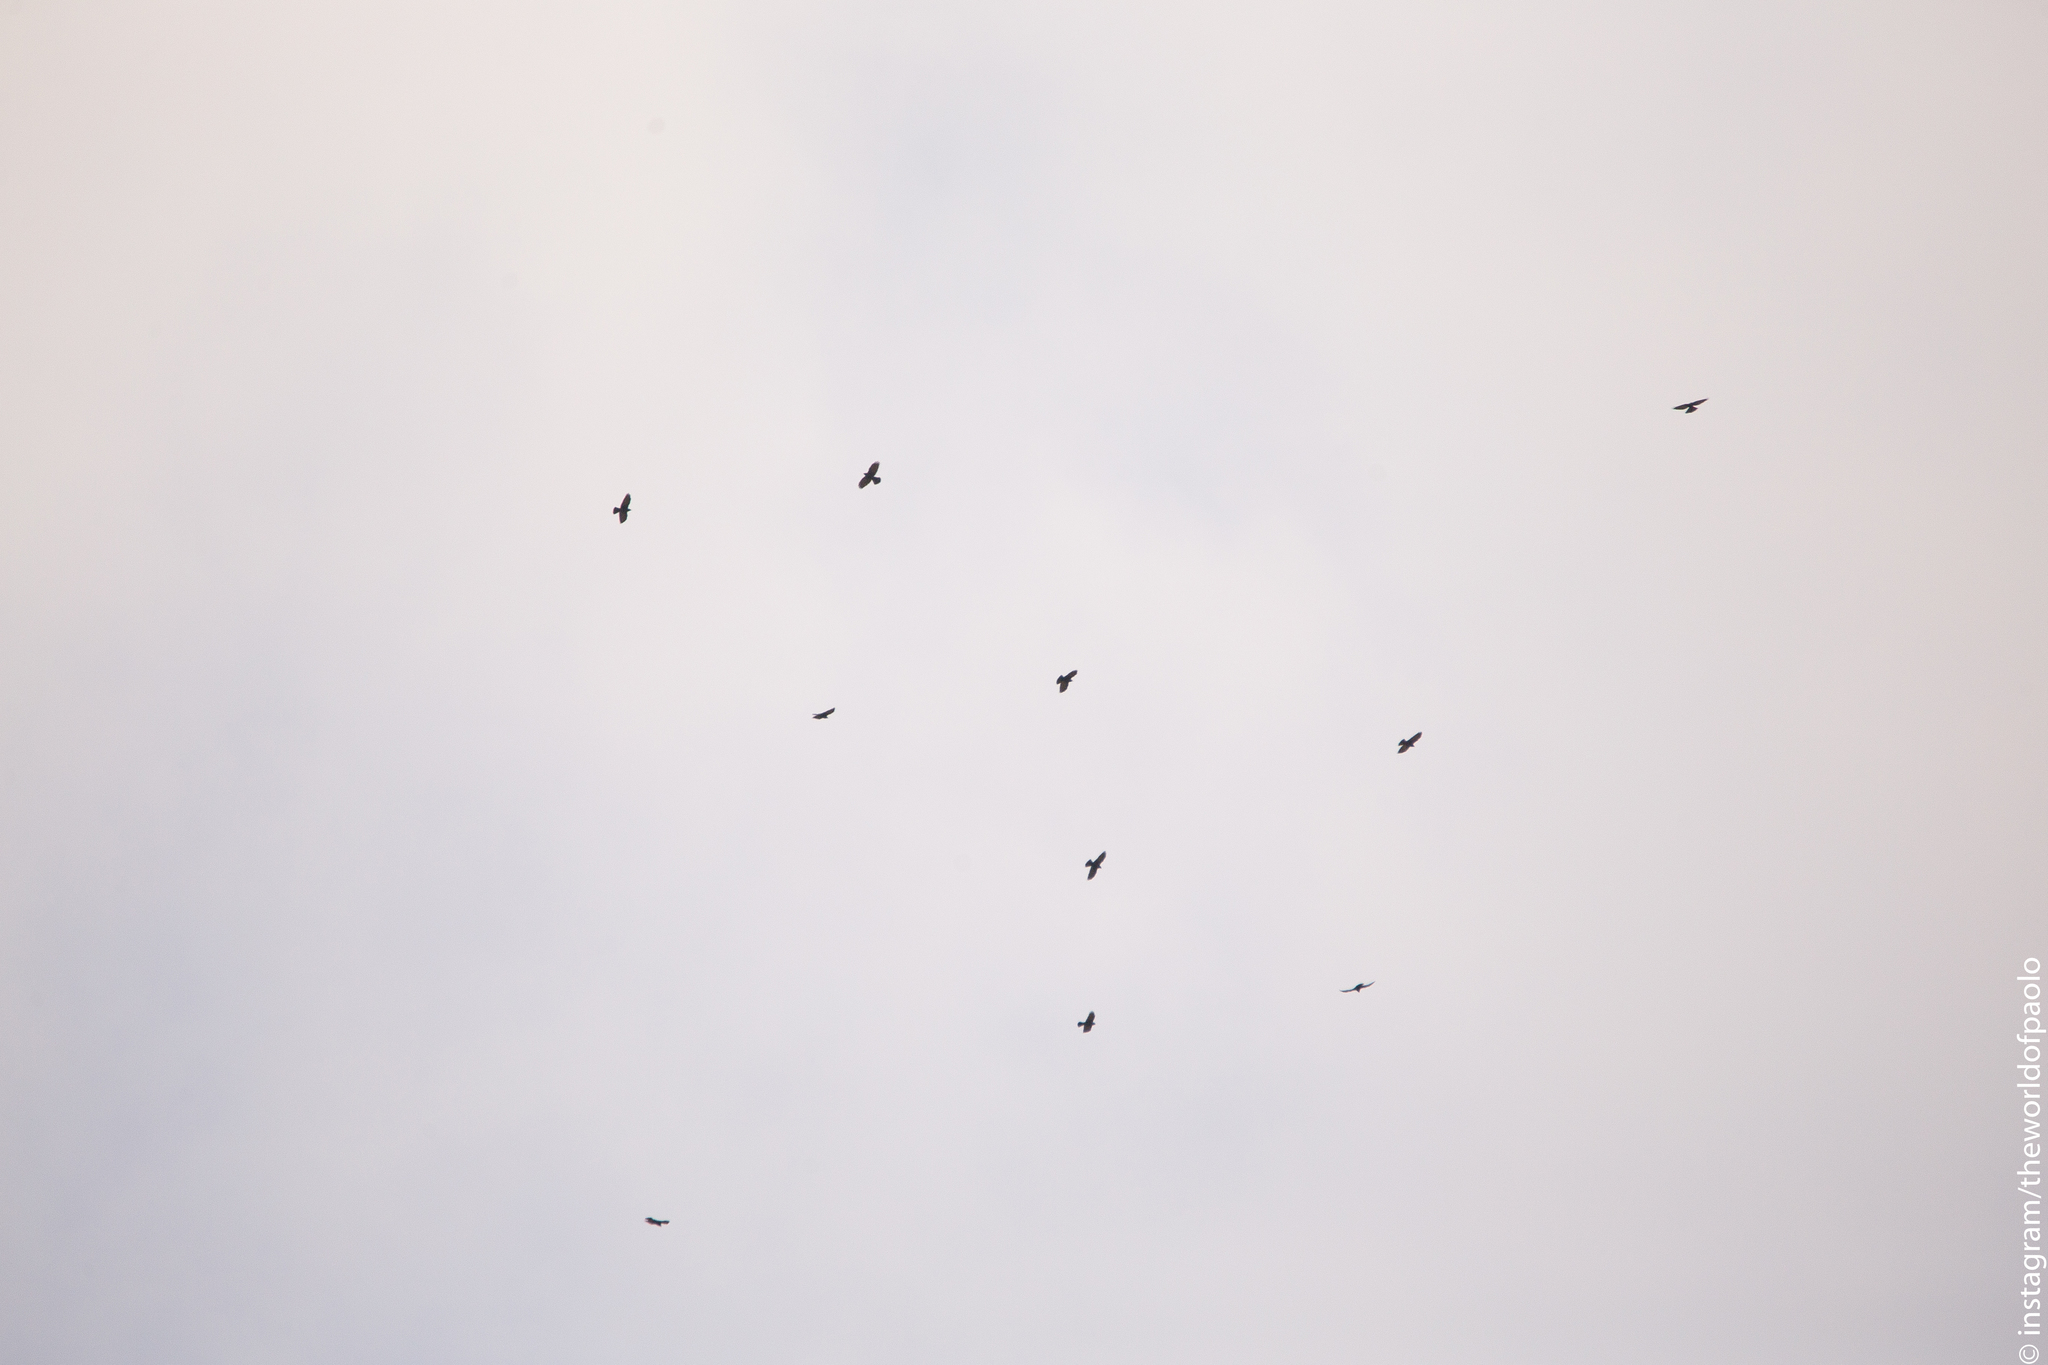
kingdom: Animalia
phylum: Chordata
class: Aves
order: Passeriformes
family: Corvidae
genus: Pyrrhocorax
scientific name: Pyrrhocorax graculus
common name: Alpine chough
